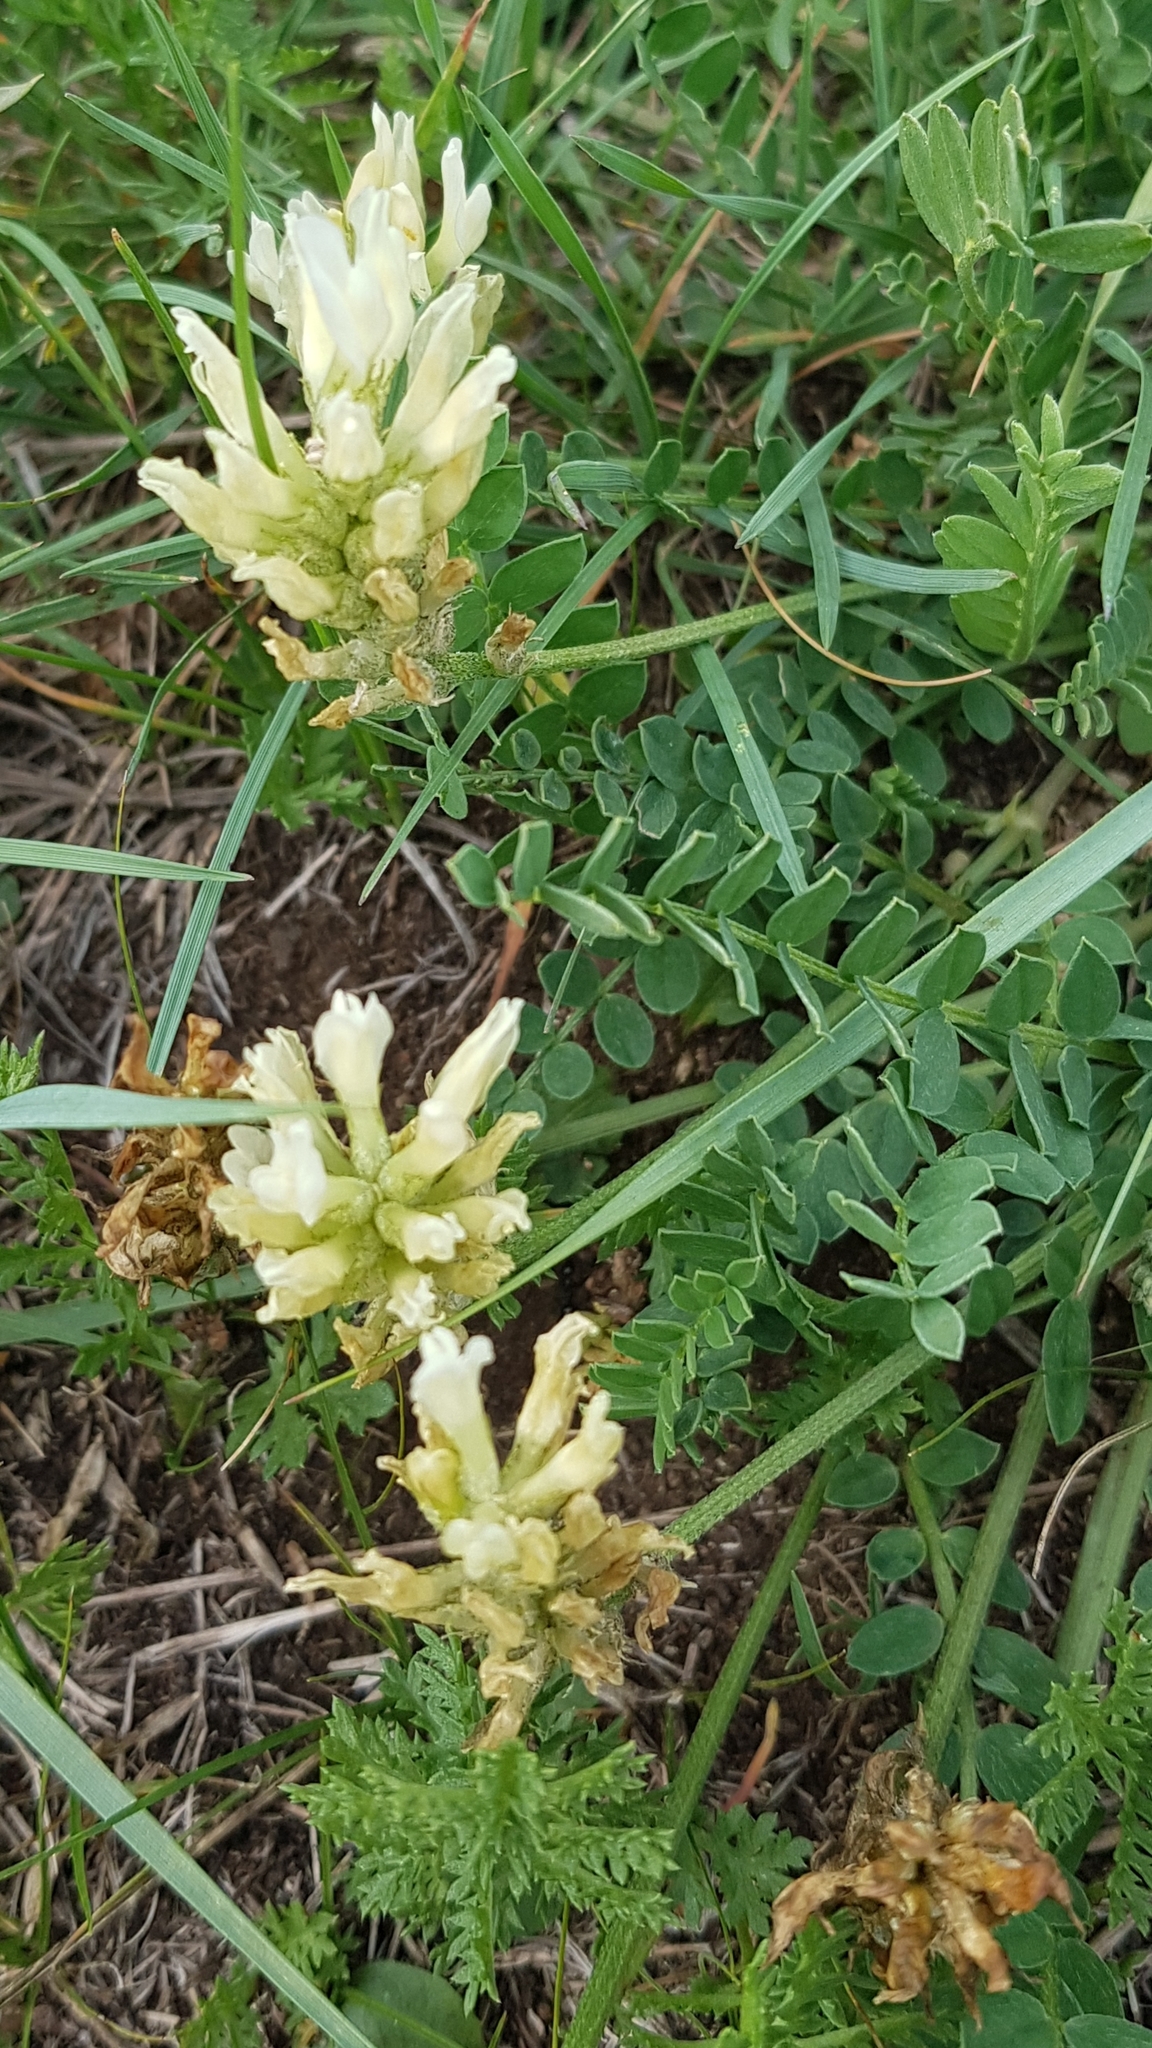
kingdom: Plantae
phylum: Tracheophyta
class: Magnoliopsida
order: Fabales
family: Fabaceae
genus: Astragalus
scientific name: Astragalus laxmannii
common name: Laxmann's milk-vetch
